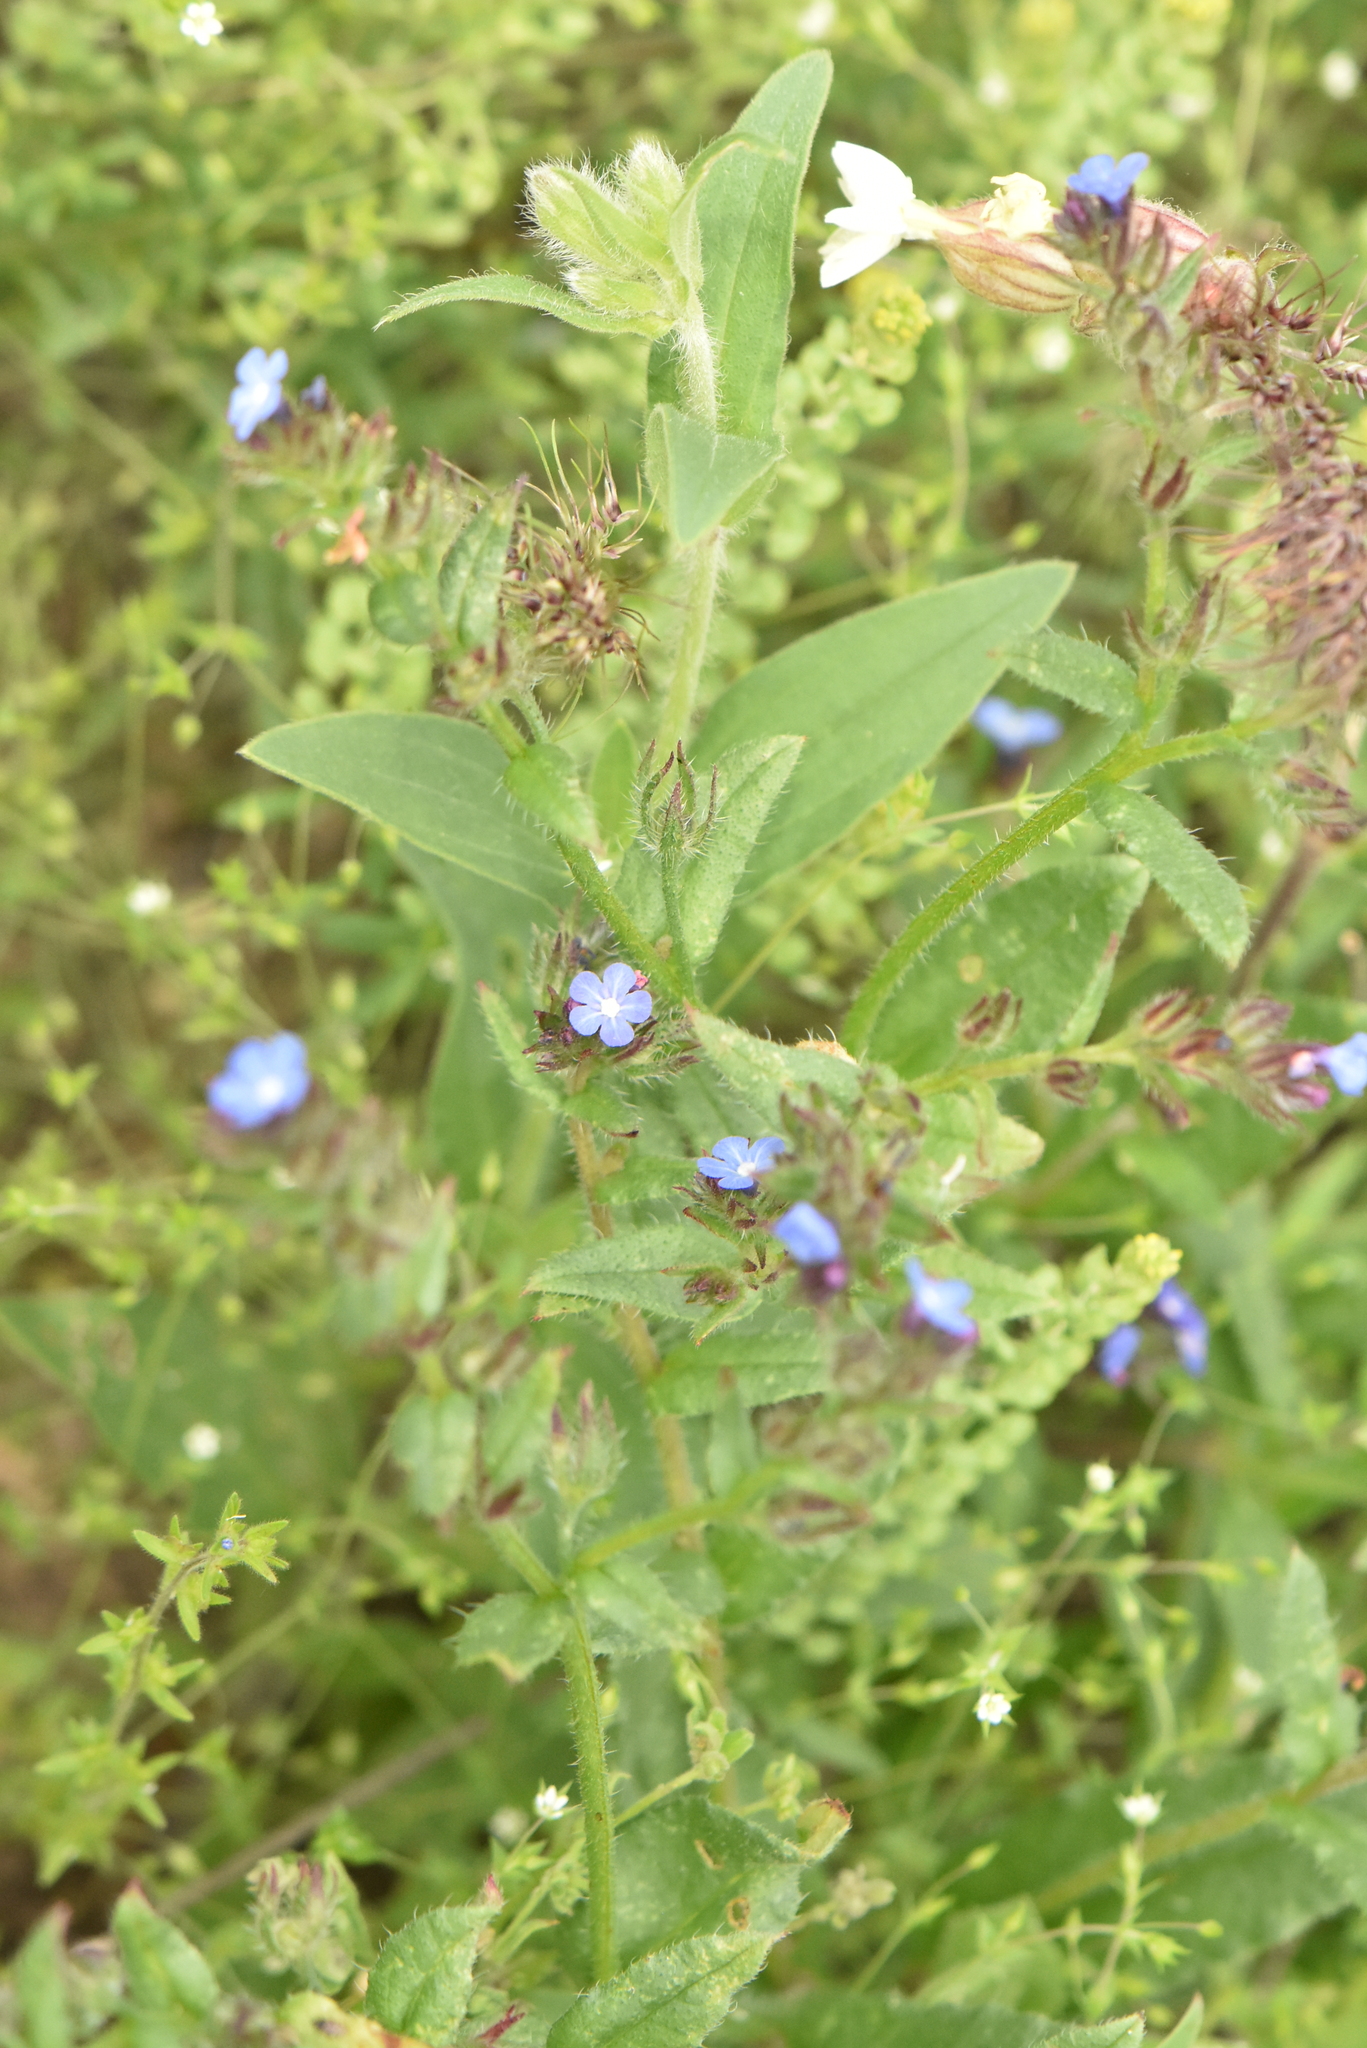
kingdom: Plantae
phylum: Tracheophyta
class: Magnoliopsida
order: Boraginales
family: Boraginaceae
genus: Lycopsis
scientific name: Lycopsis arvensis
